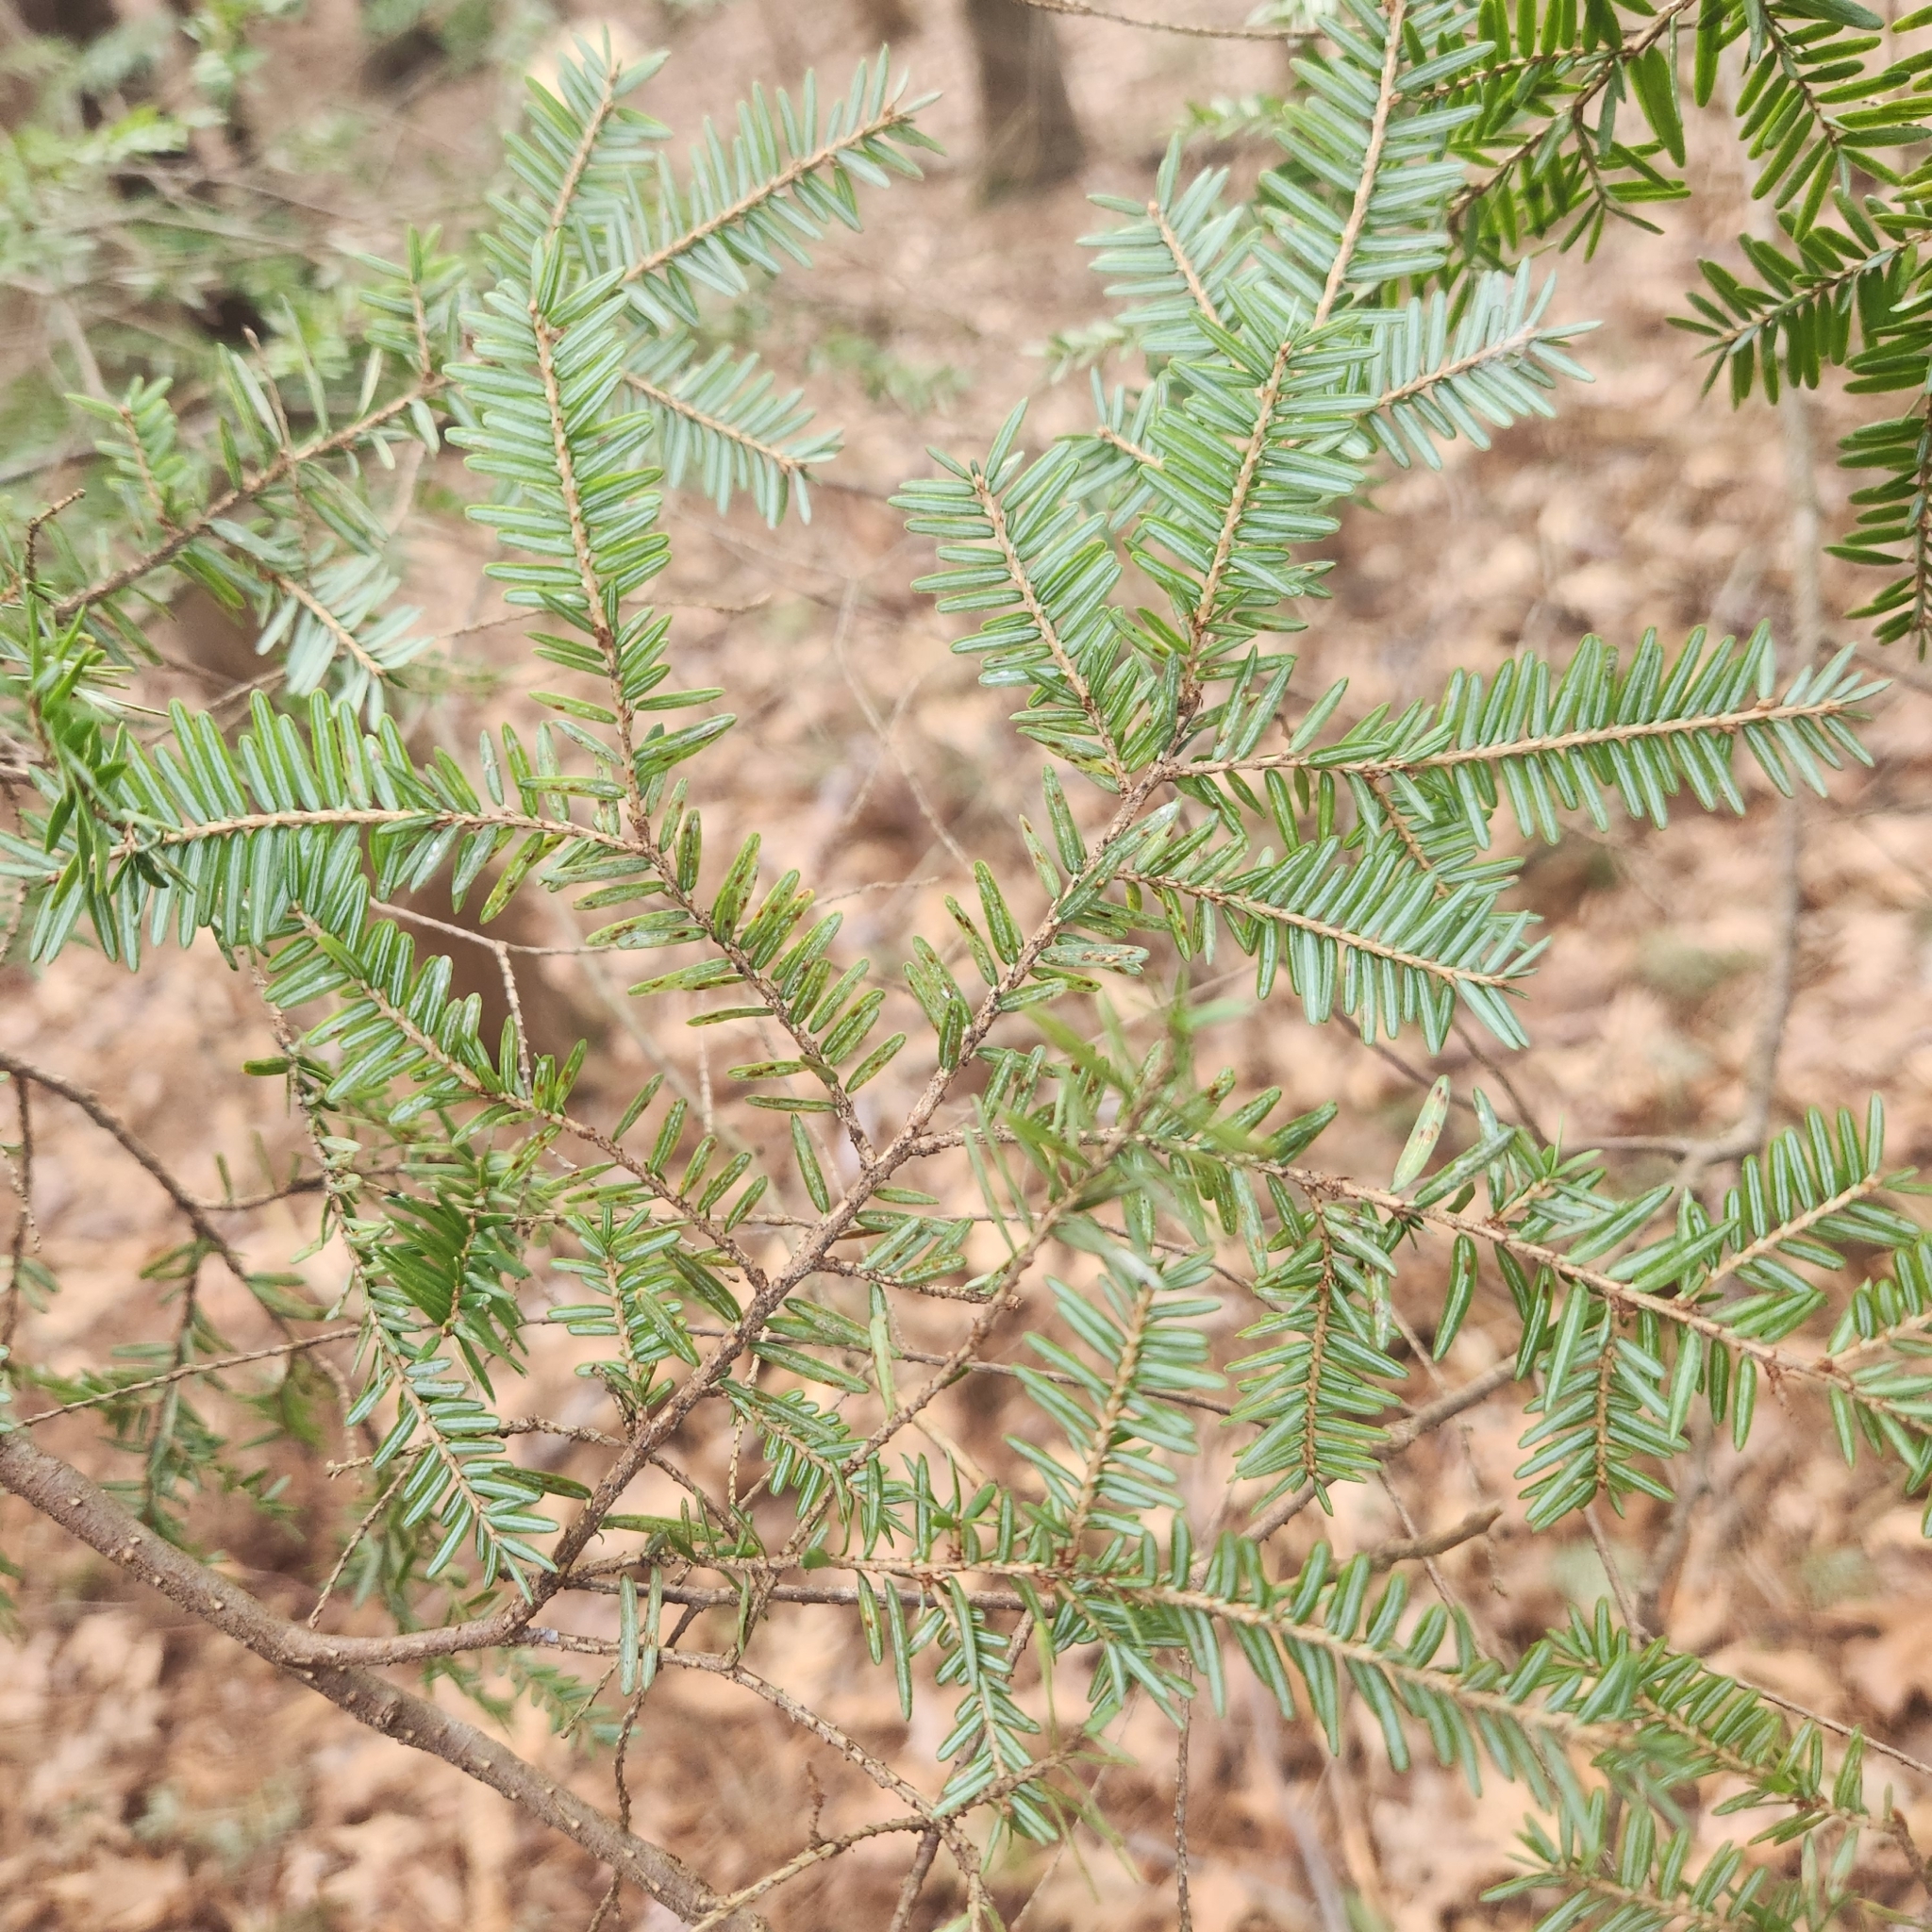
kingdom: Plantae
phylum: Tracheophyta
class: Pinopsida
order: Pinales
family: Pinaceae
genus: Tsuga
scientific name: Tsuga canadensis
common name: Eastern hemlock
